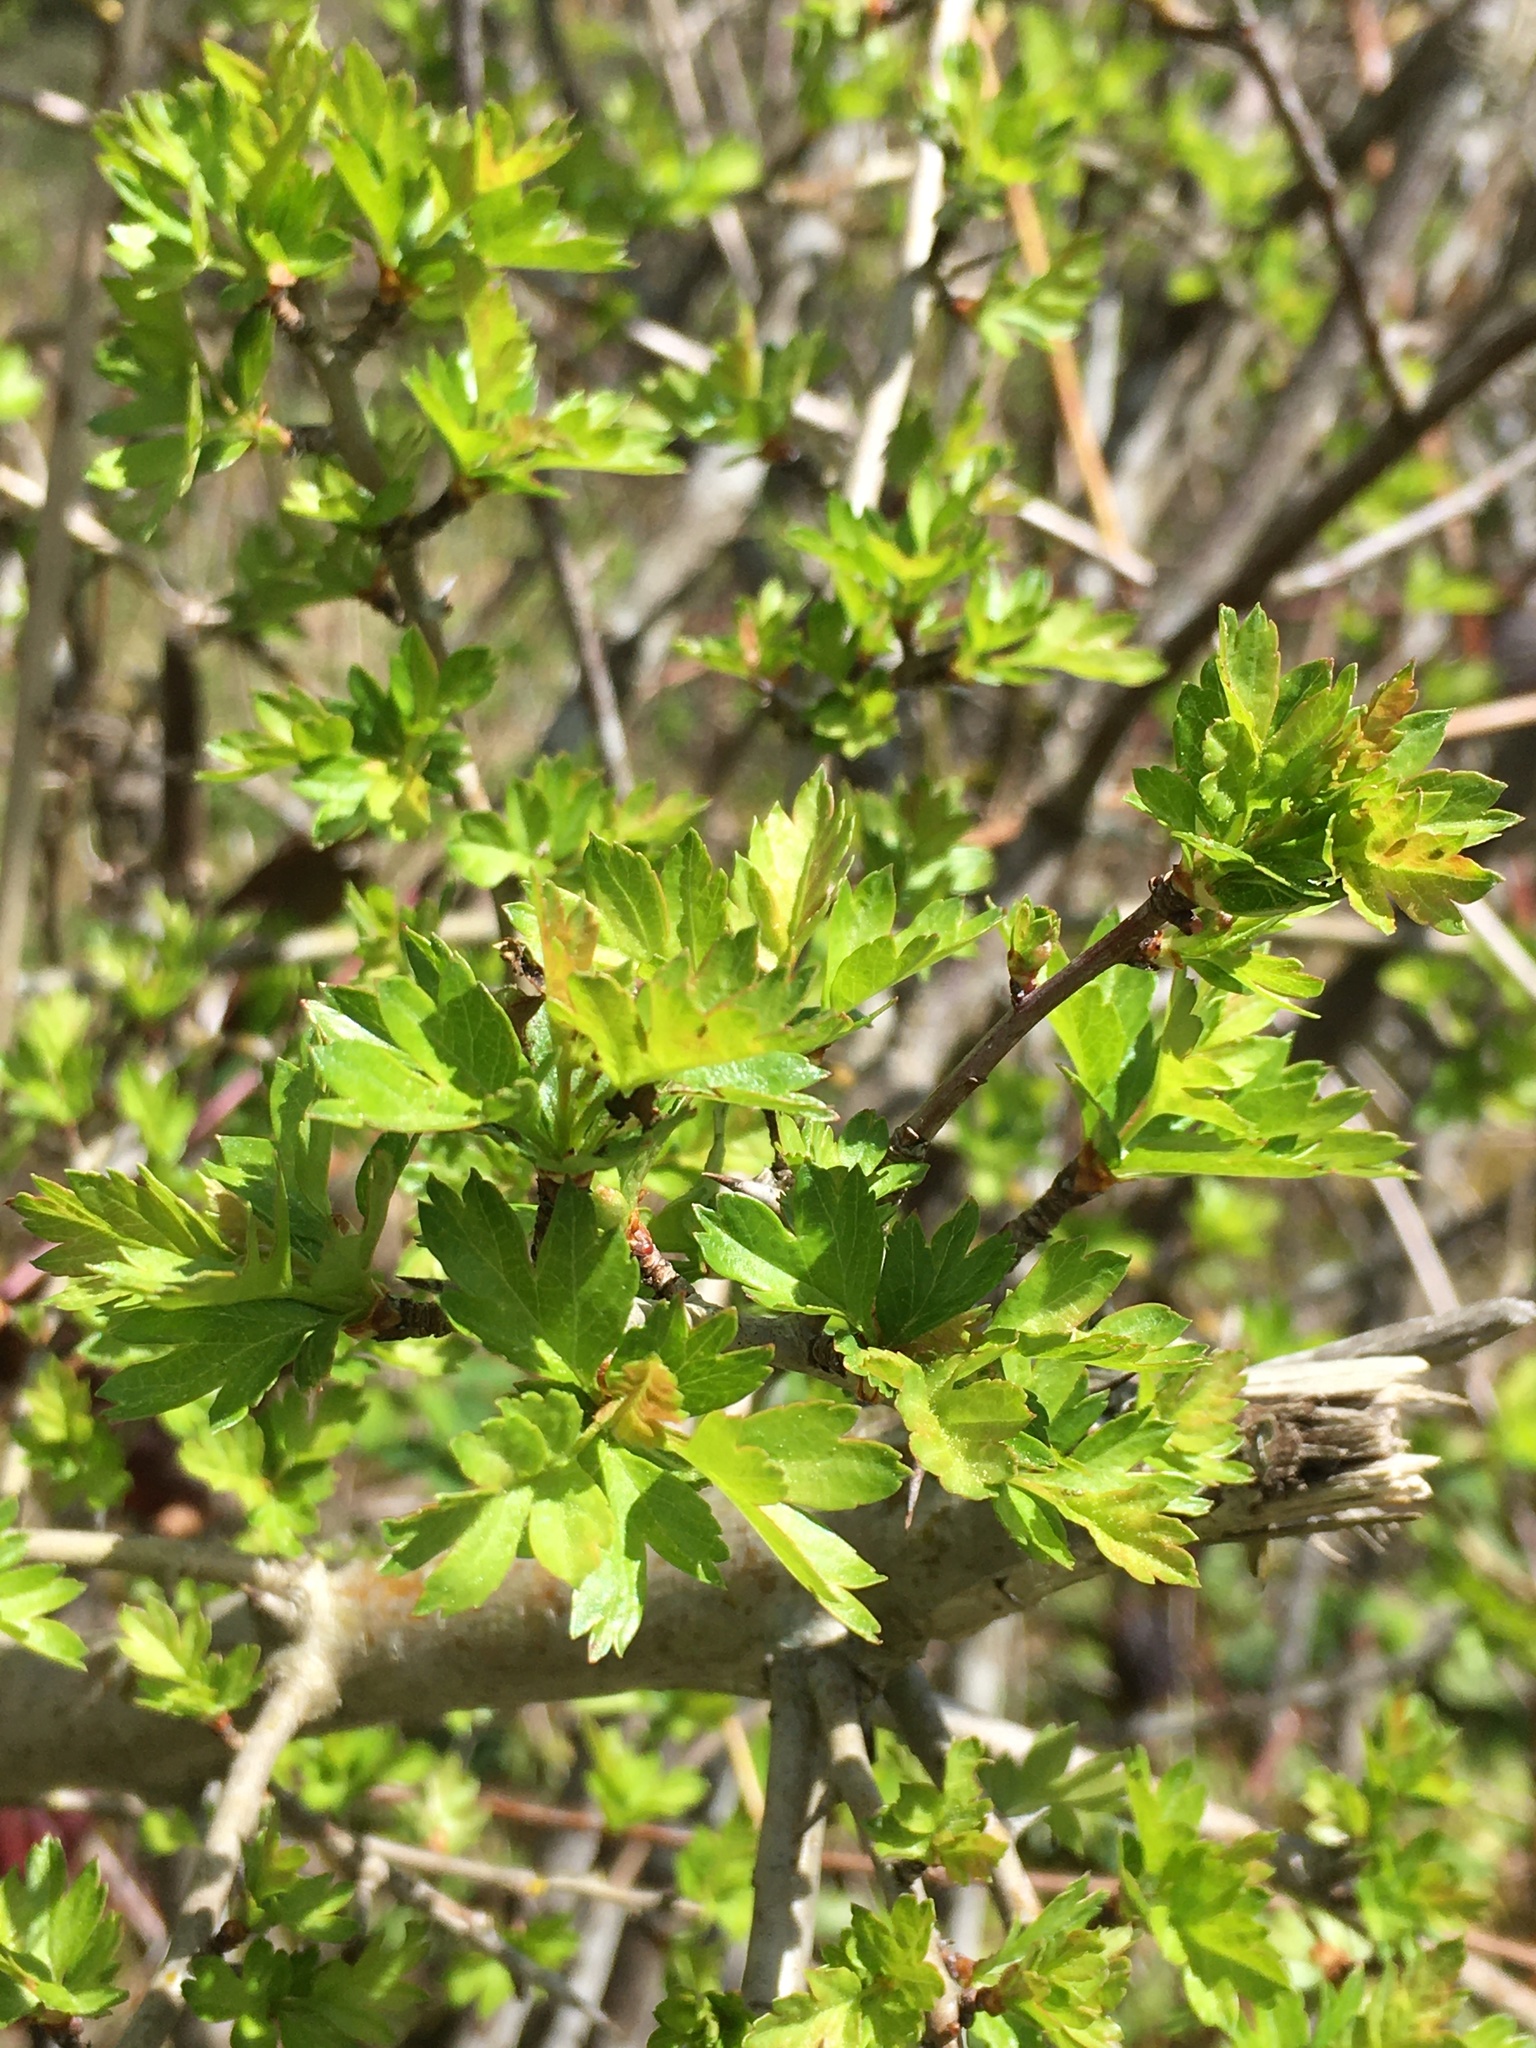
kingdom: Plantae
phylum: Tracheophyta
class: Magnoliopsida
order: Rosales
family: Rosaceae
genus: Crataegus
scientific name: Crataegus monogyna
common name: Hawthorn
